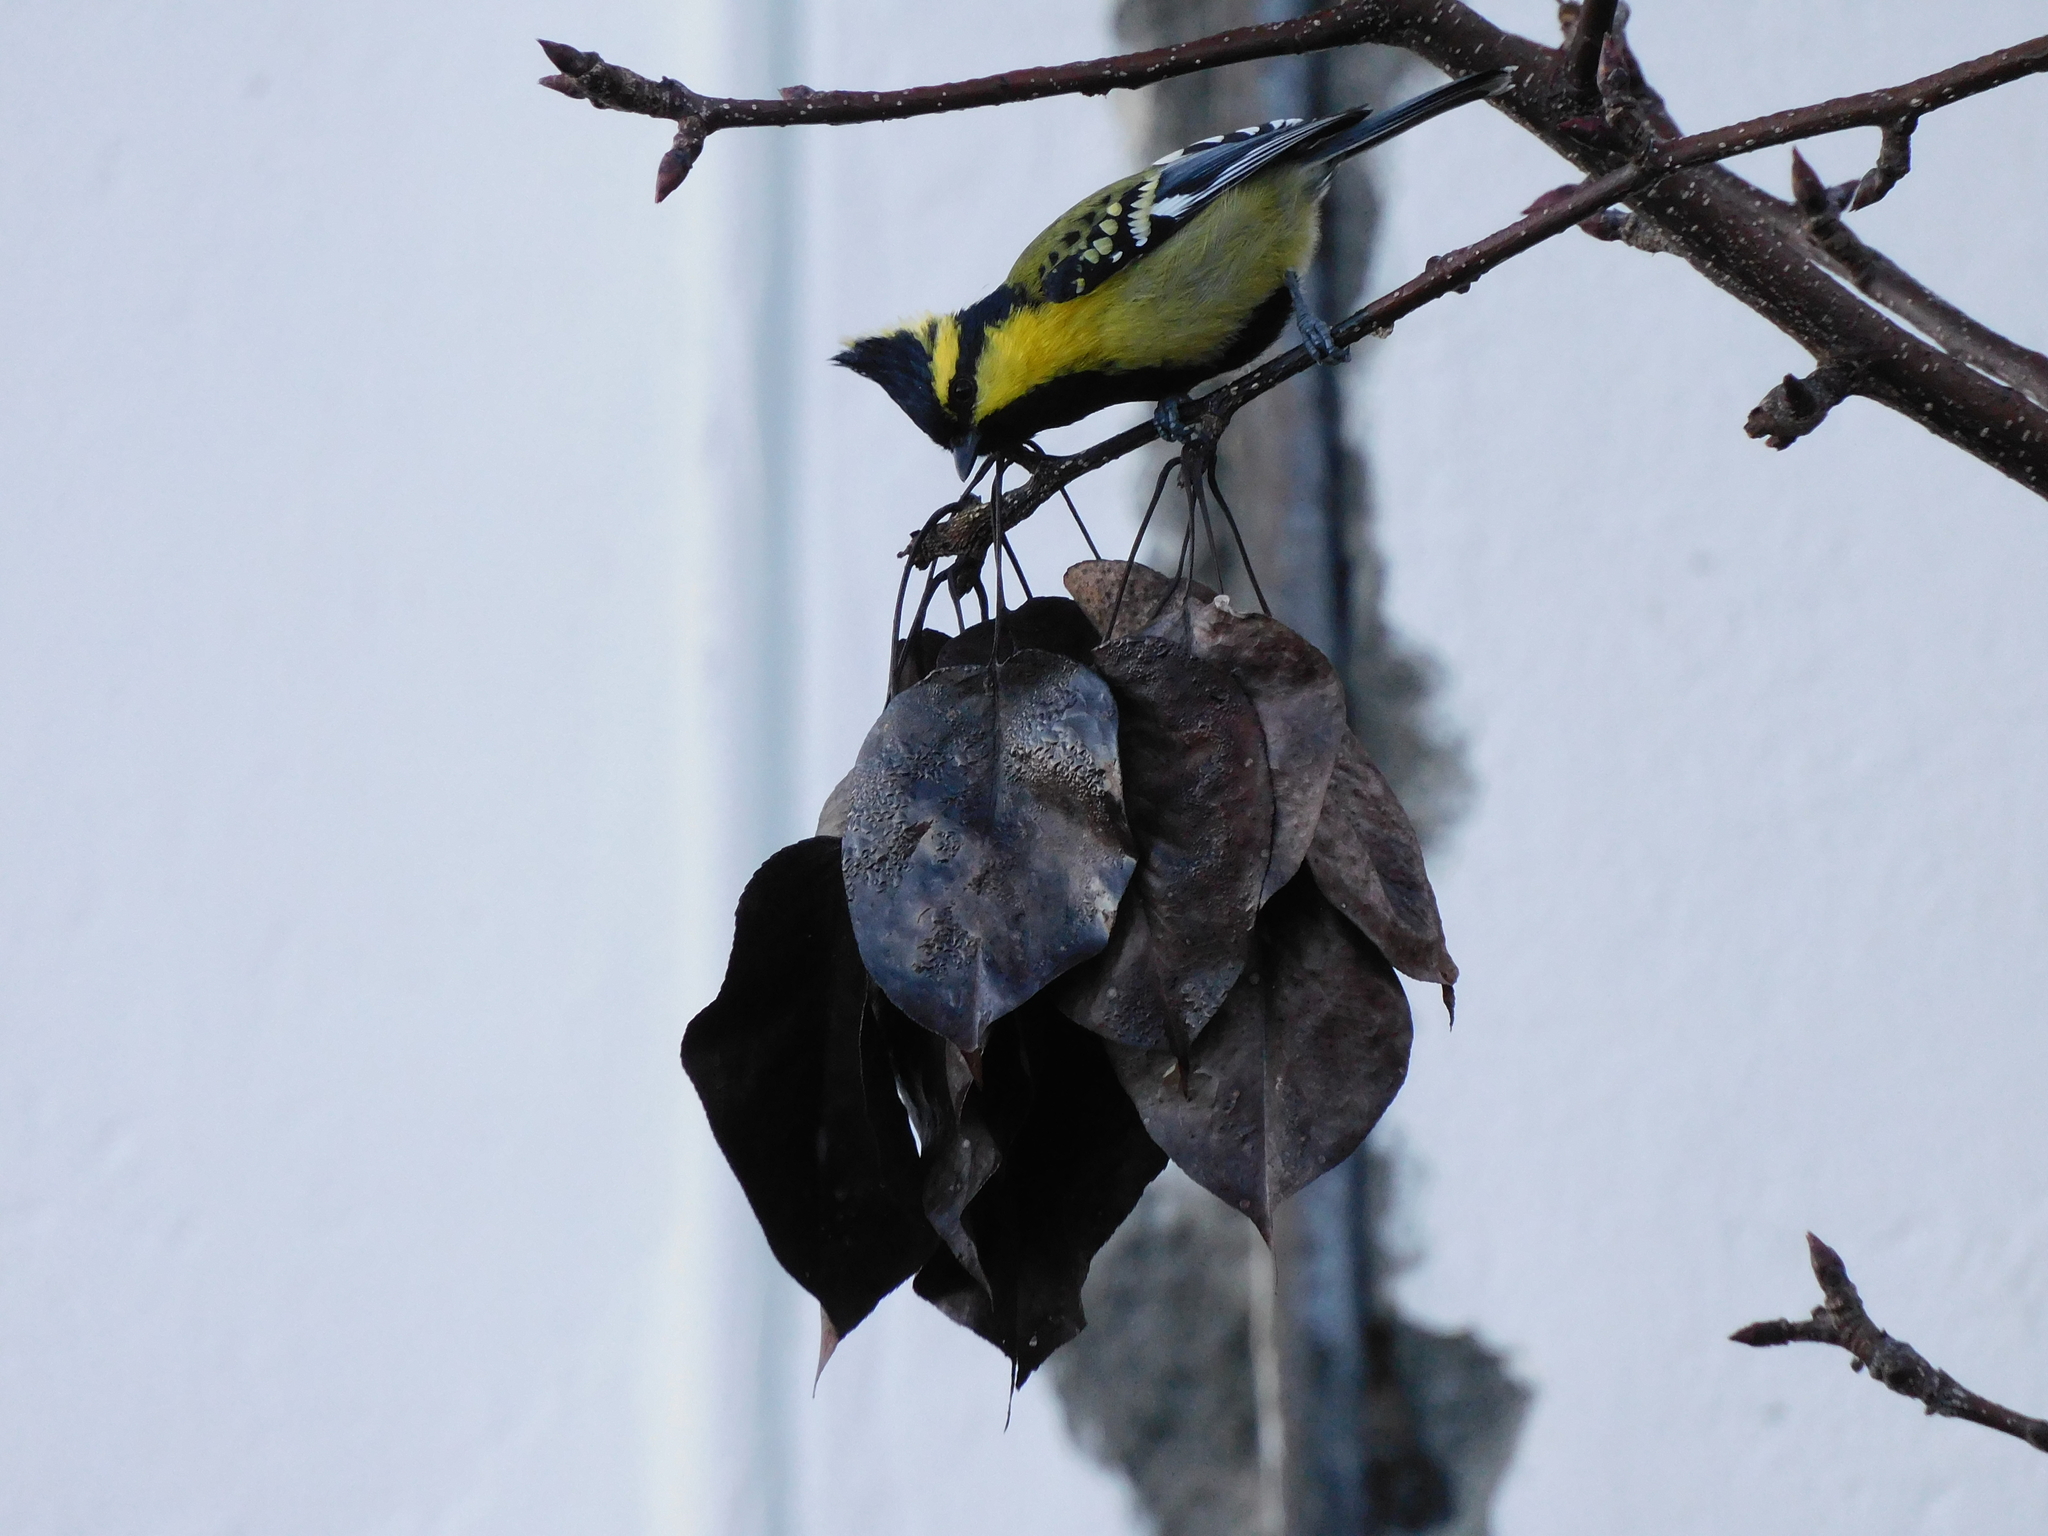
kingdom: Animalia
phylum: Chordata
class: Aves
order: Passeriformes
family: Paridae
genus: Parus
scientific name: Parus xanthogenys
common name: Black-lored tit
